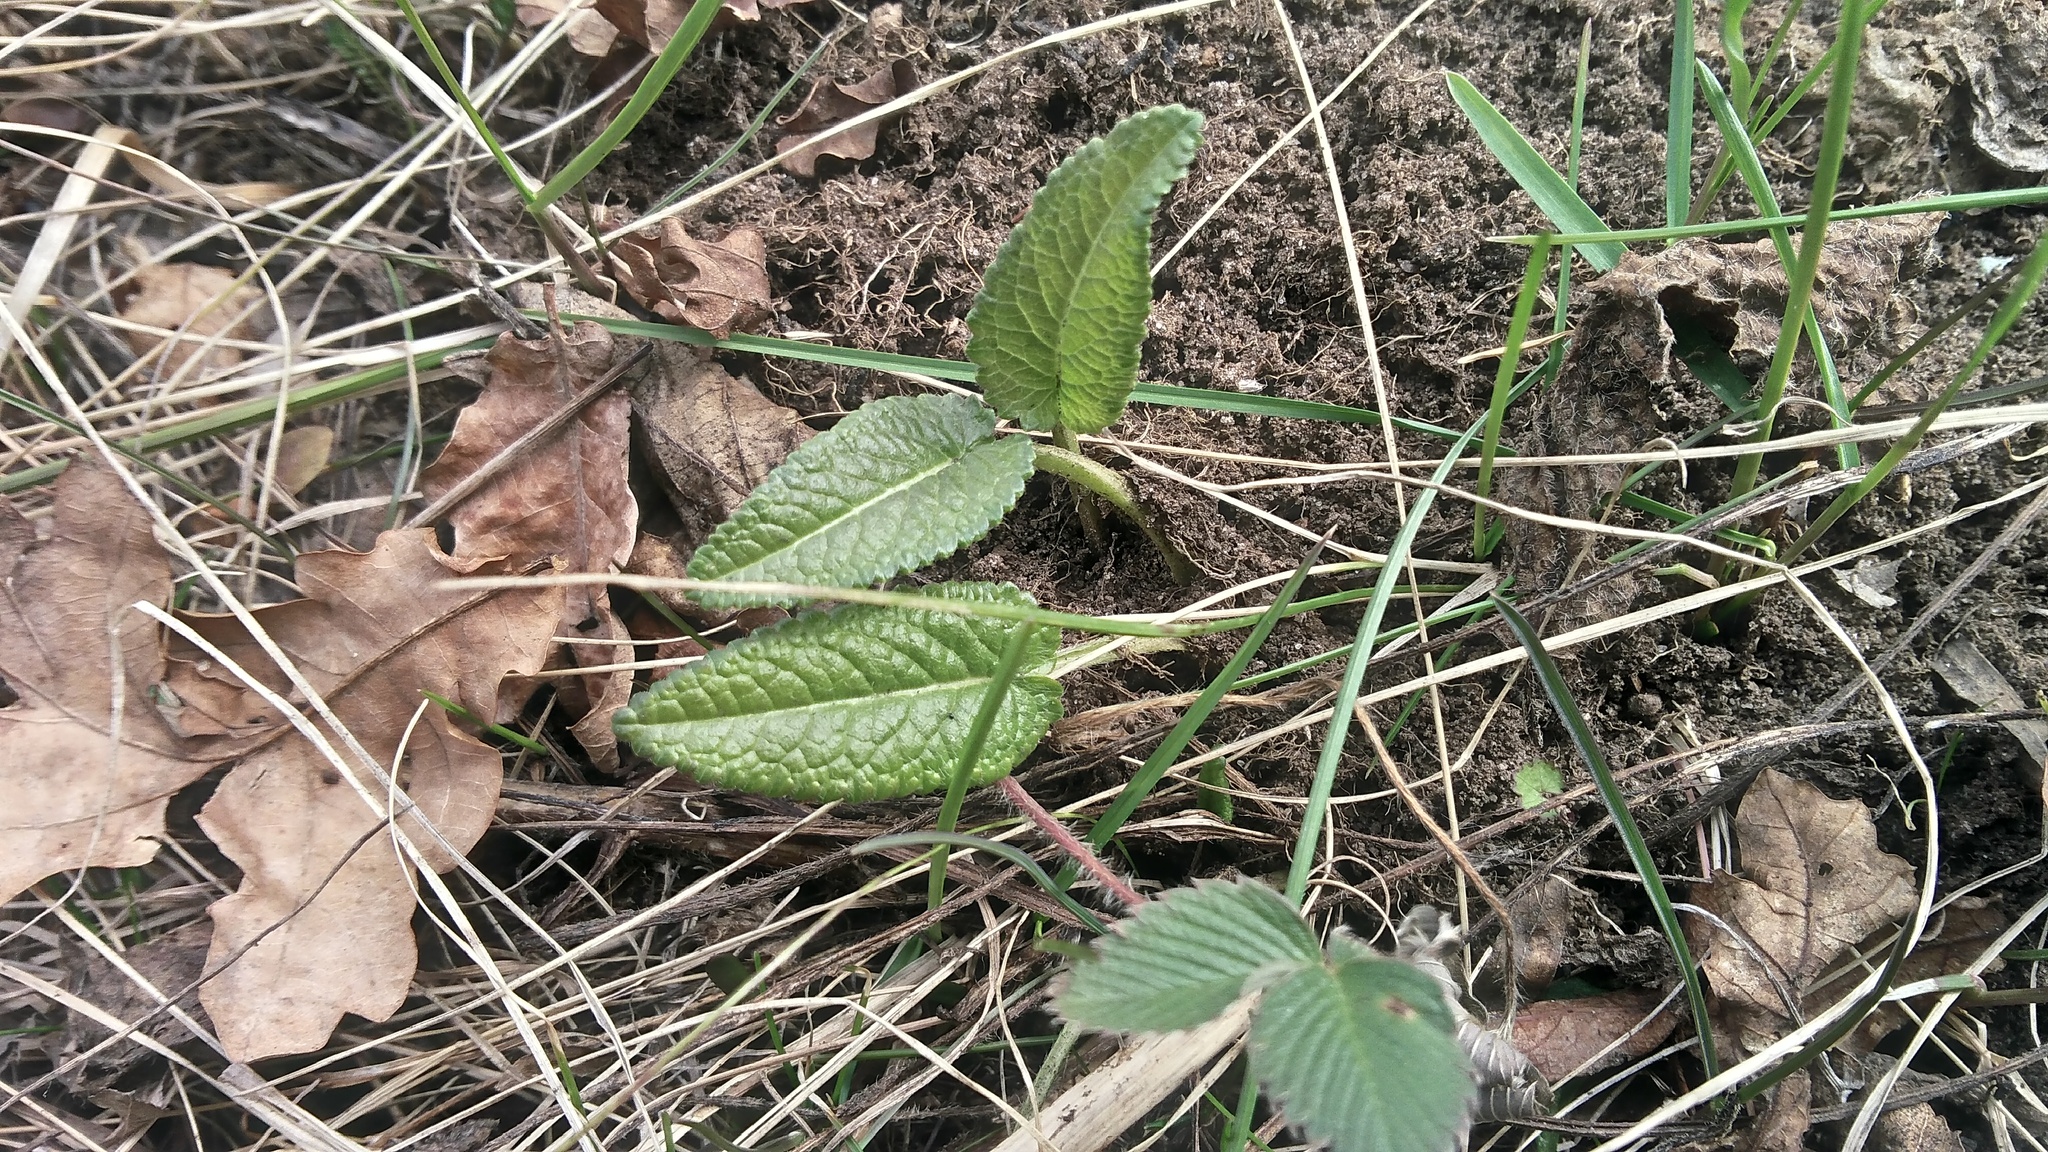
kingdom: Plantae
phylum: Tracheophyta
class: Magnoliopsida
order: Lamiales
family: Lamiaceae
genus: Betonica
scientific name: Betonica officinalis
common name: Bishop's-wort
